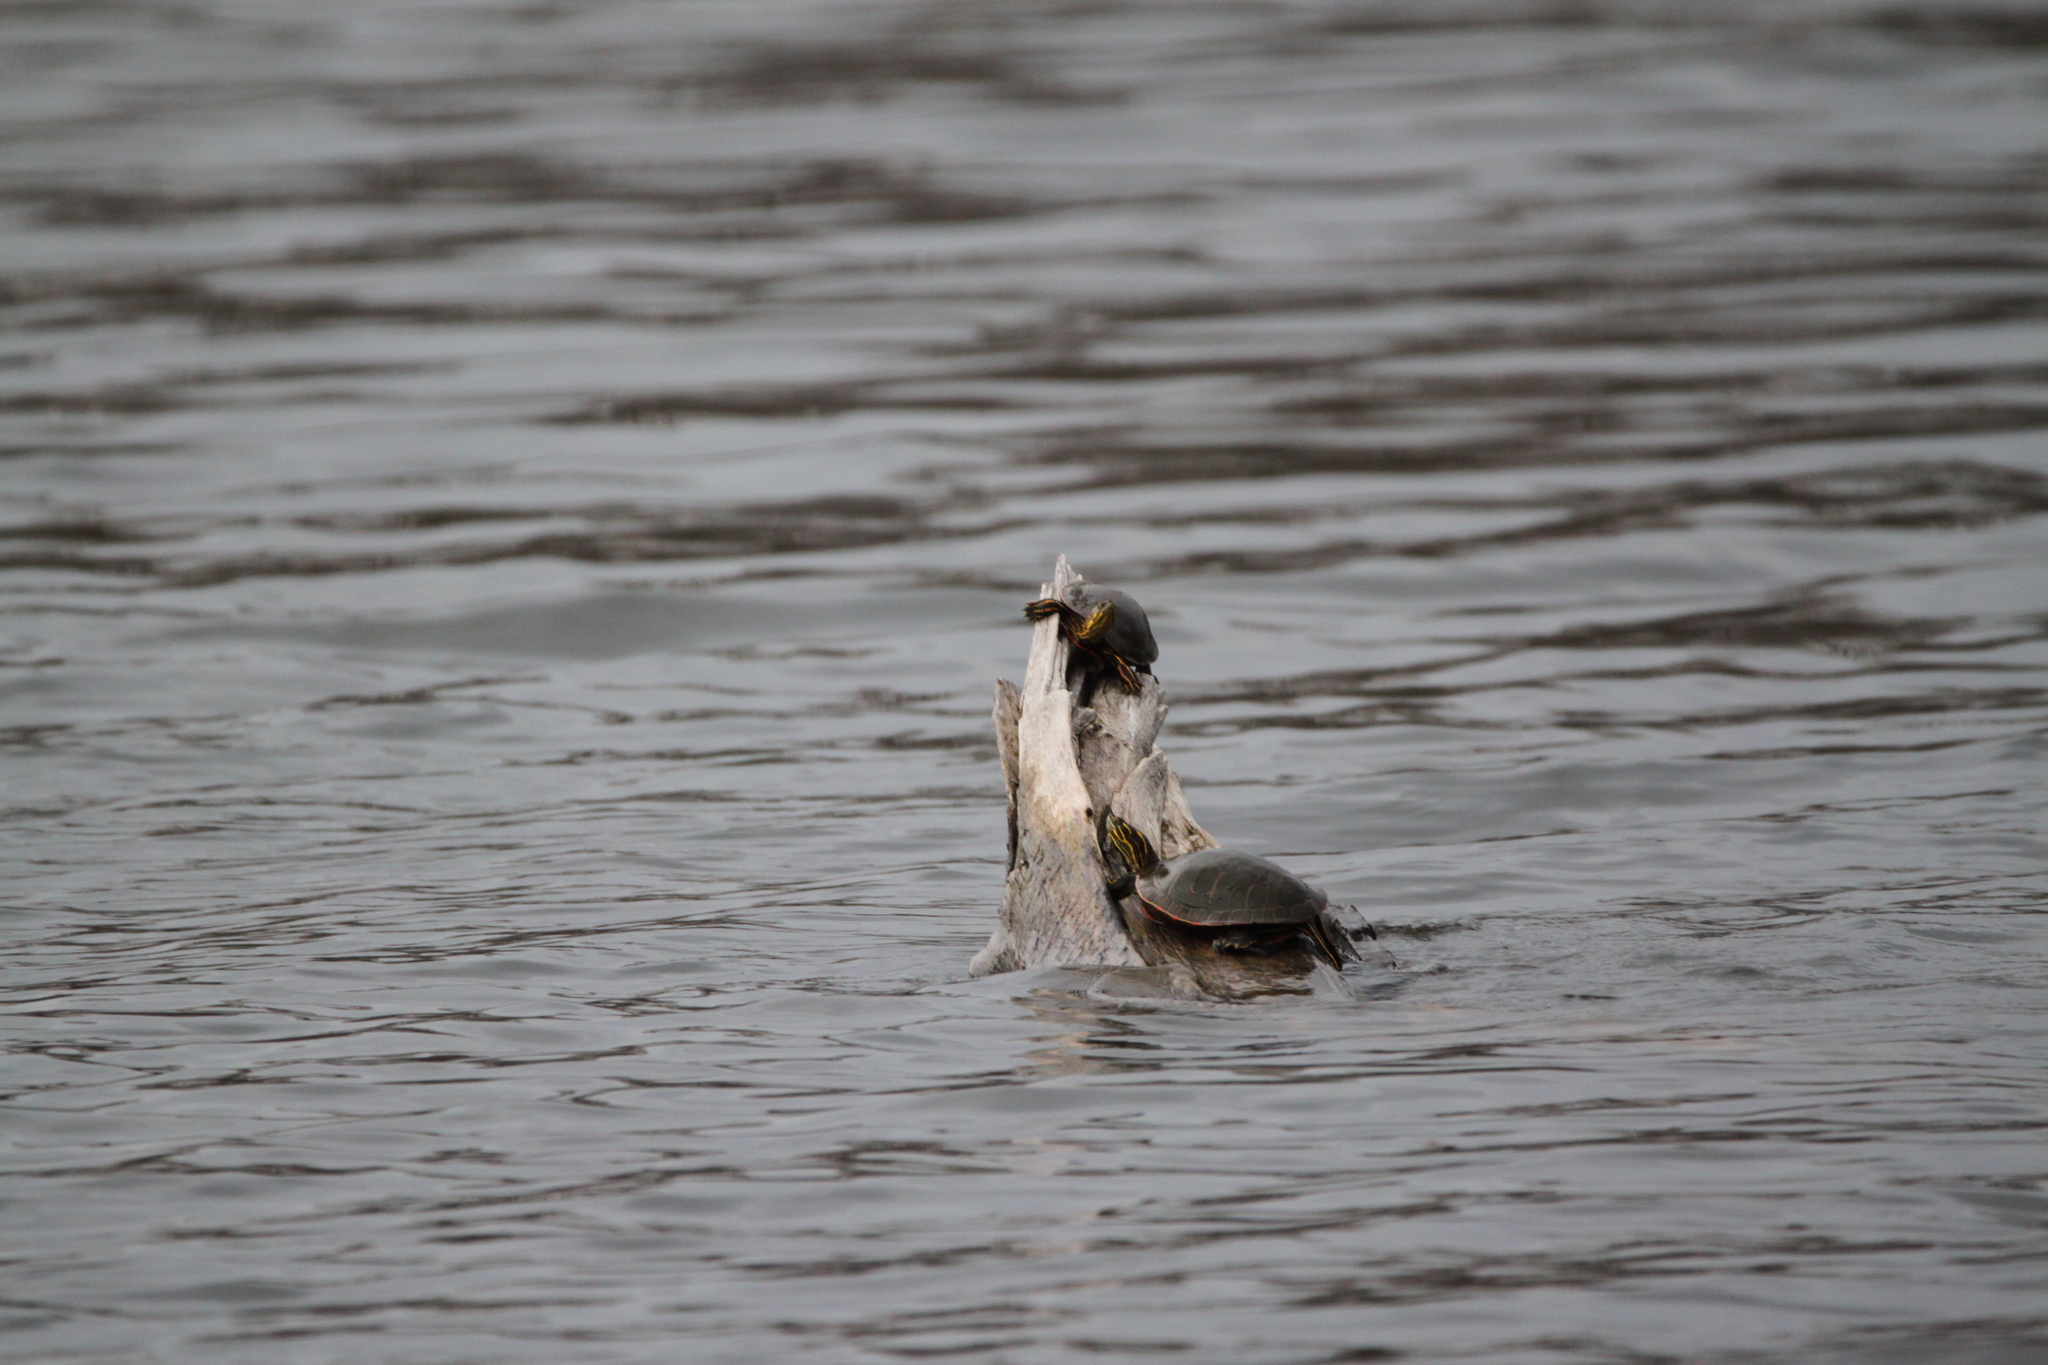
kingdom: Animalia
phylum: Chordata
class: Testudines
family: Emydidae
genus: Chrysemys
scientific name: Chrysemys picta
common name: Painted turtle
